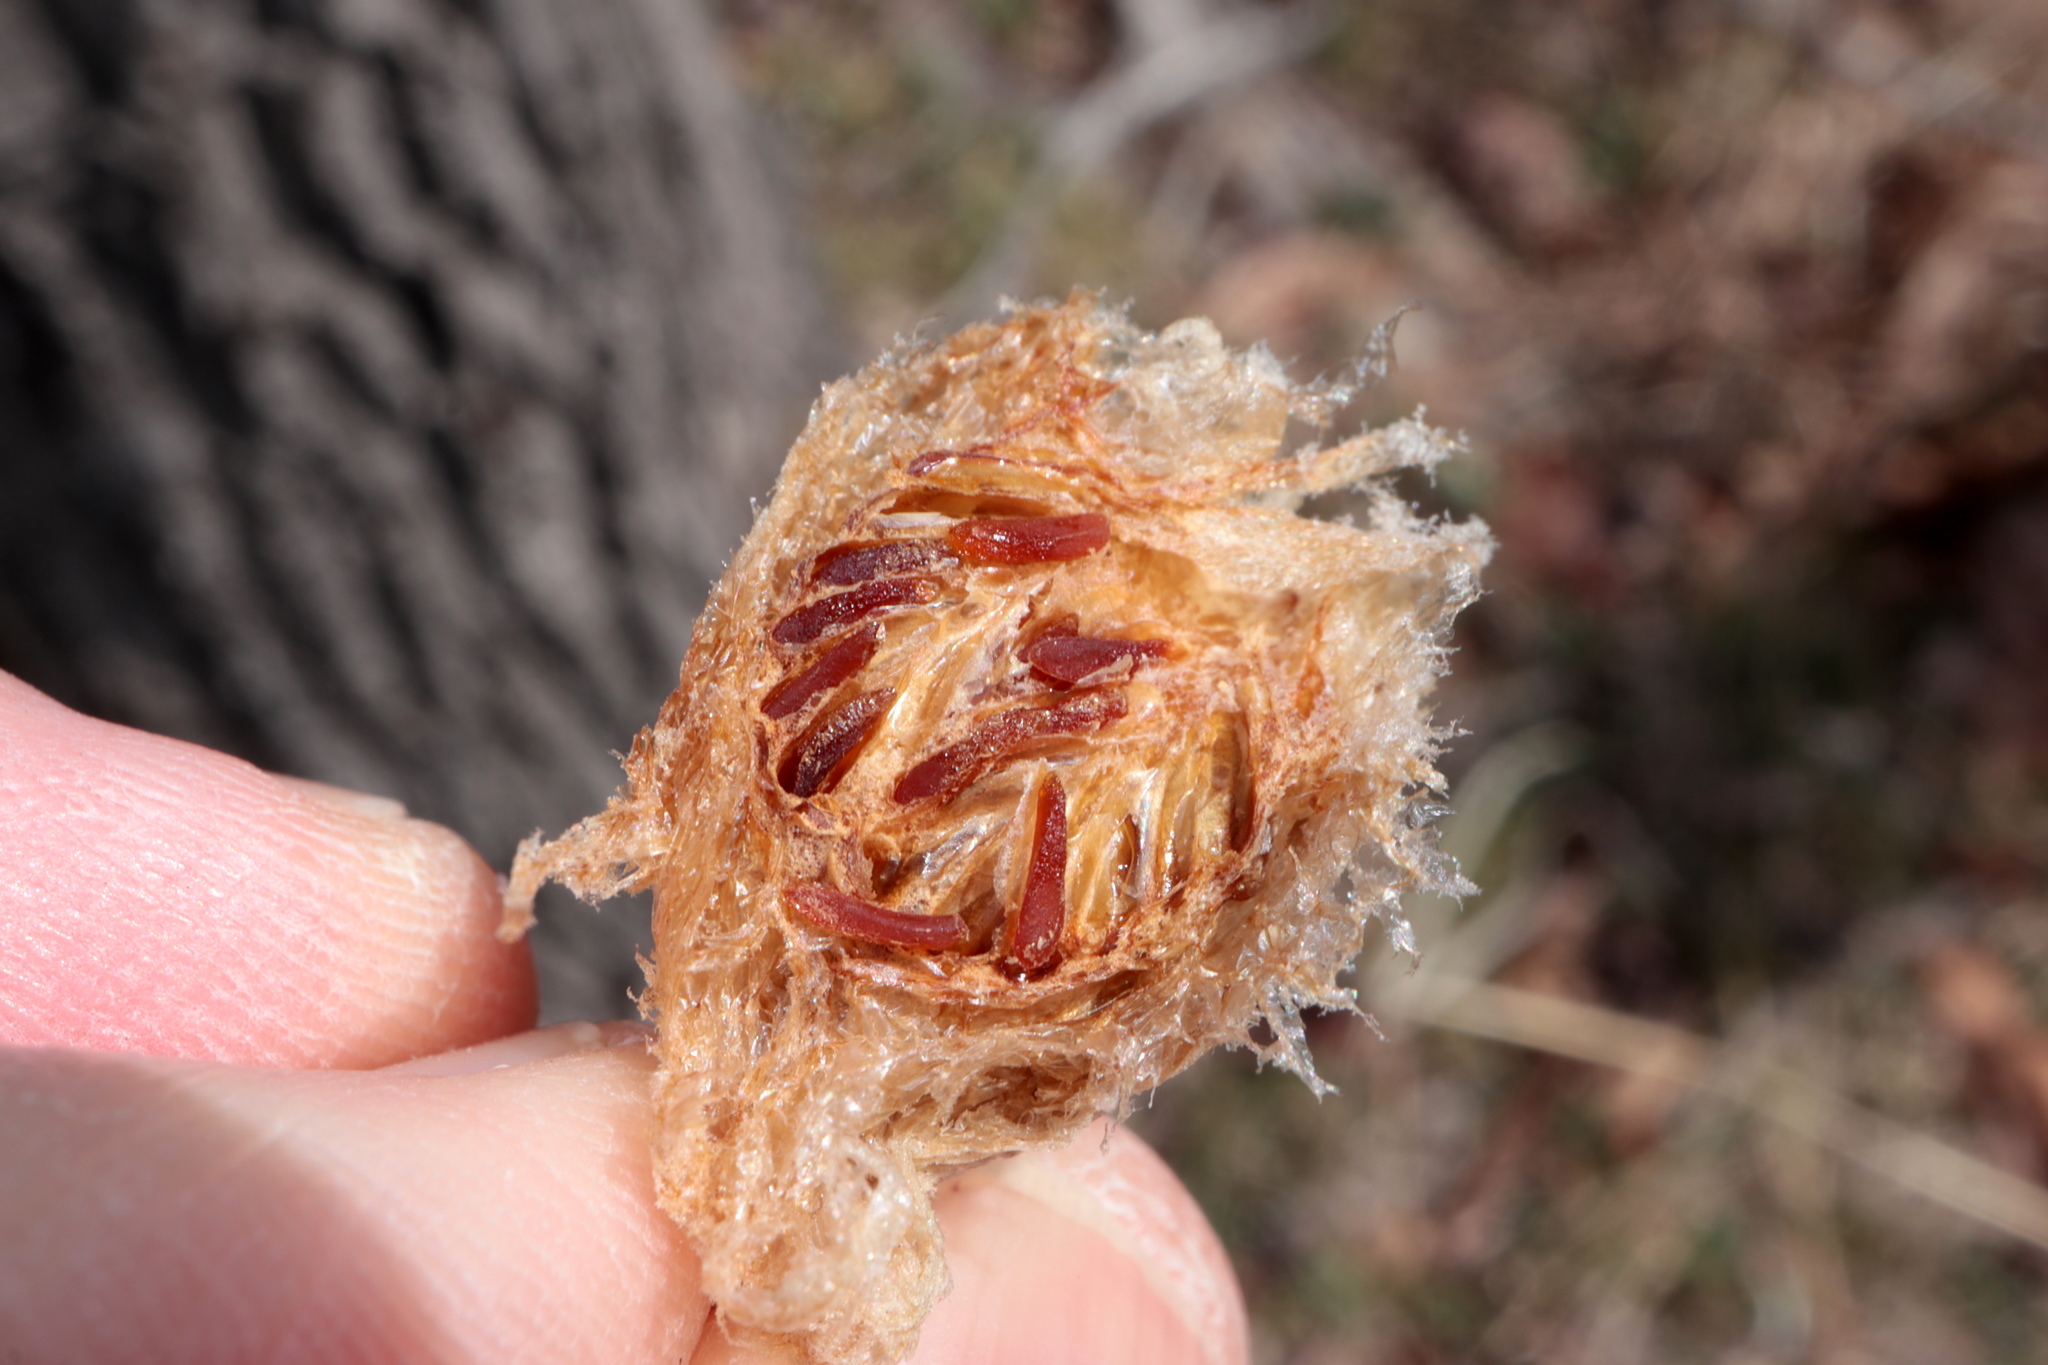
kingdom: Animalia
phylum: Arthropoda
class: Insecta
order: Mantodea
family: Mantidae
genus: Tenodera
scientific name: Tenodera sinensis
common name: Chinese mantis
